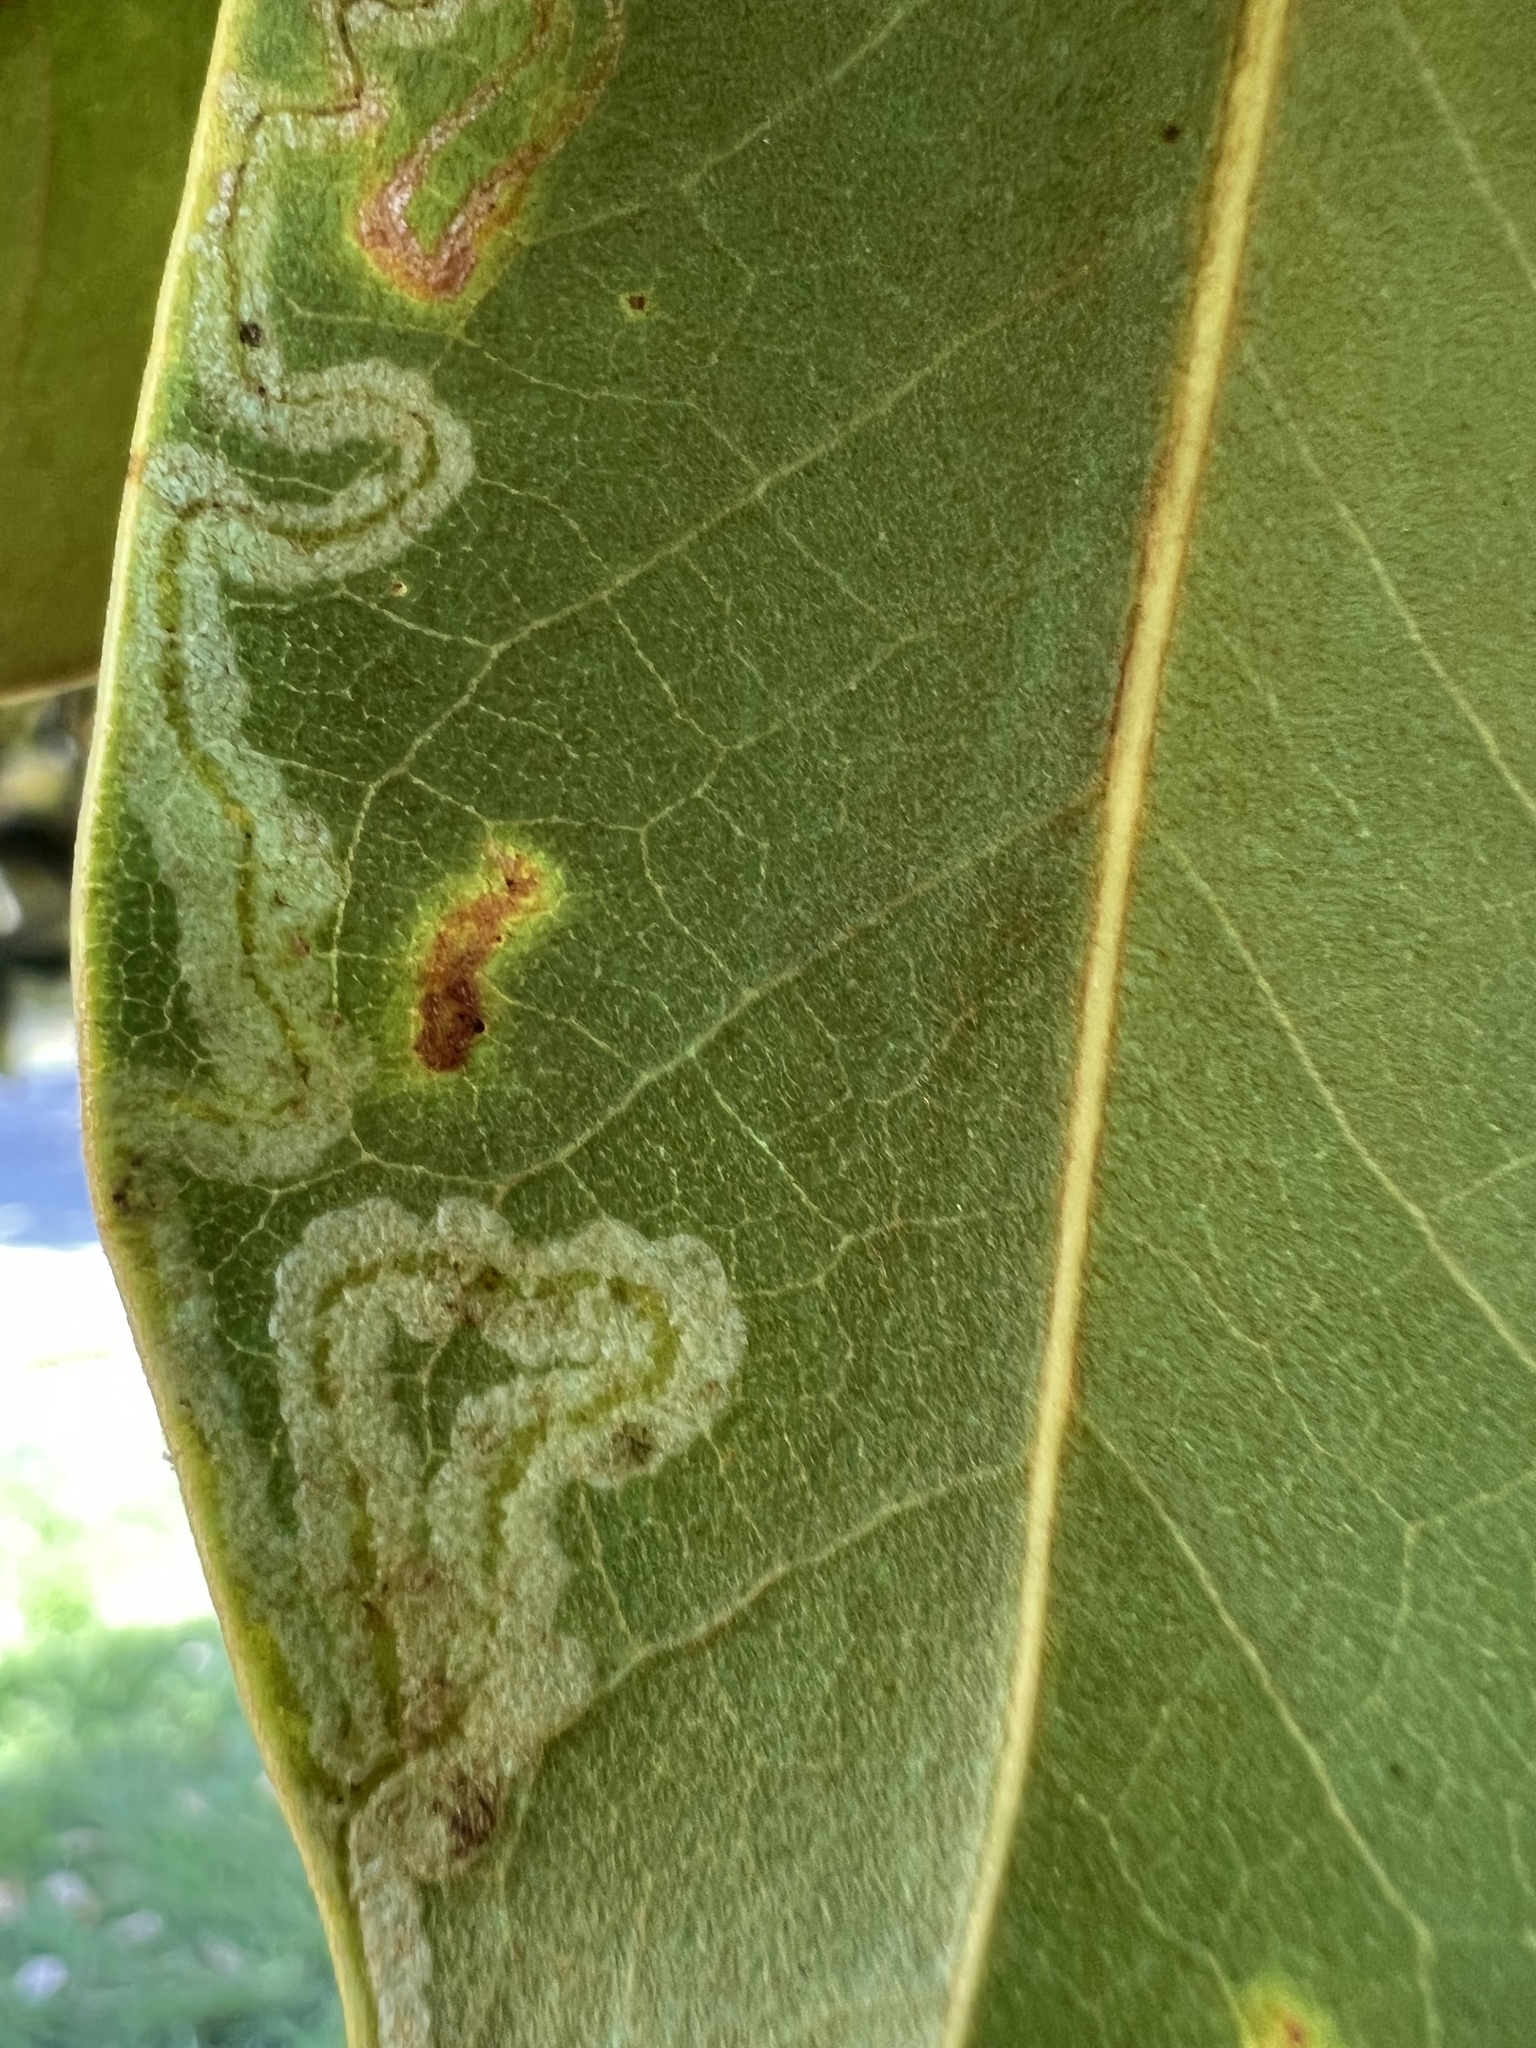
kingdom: Animalia
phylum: Arthropoda
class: Insecta
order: Lepidoptera
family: Gracillariidae
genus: Phyllocnistis
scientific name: Phyllocnistis liriodendronella
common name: Tulip tree leaf miner
